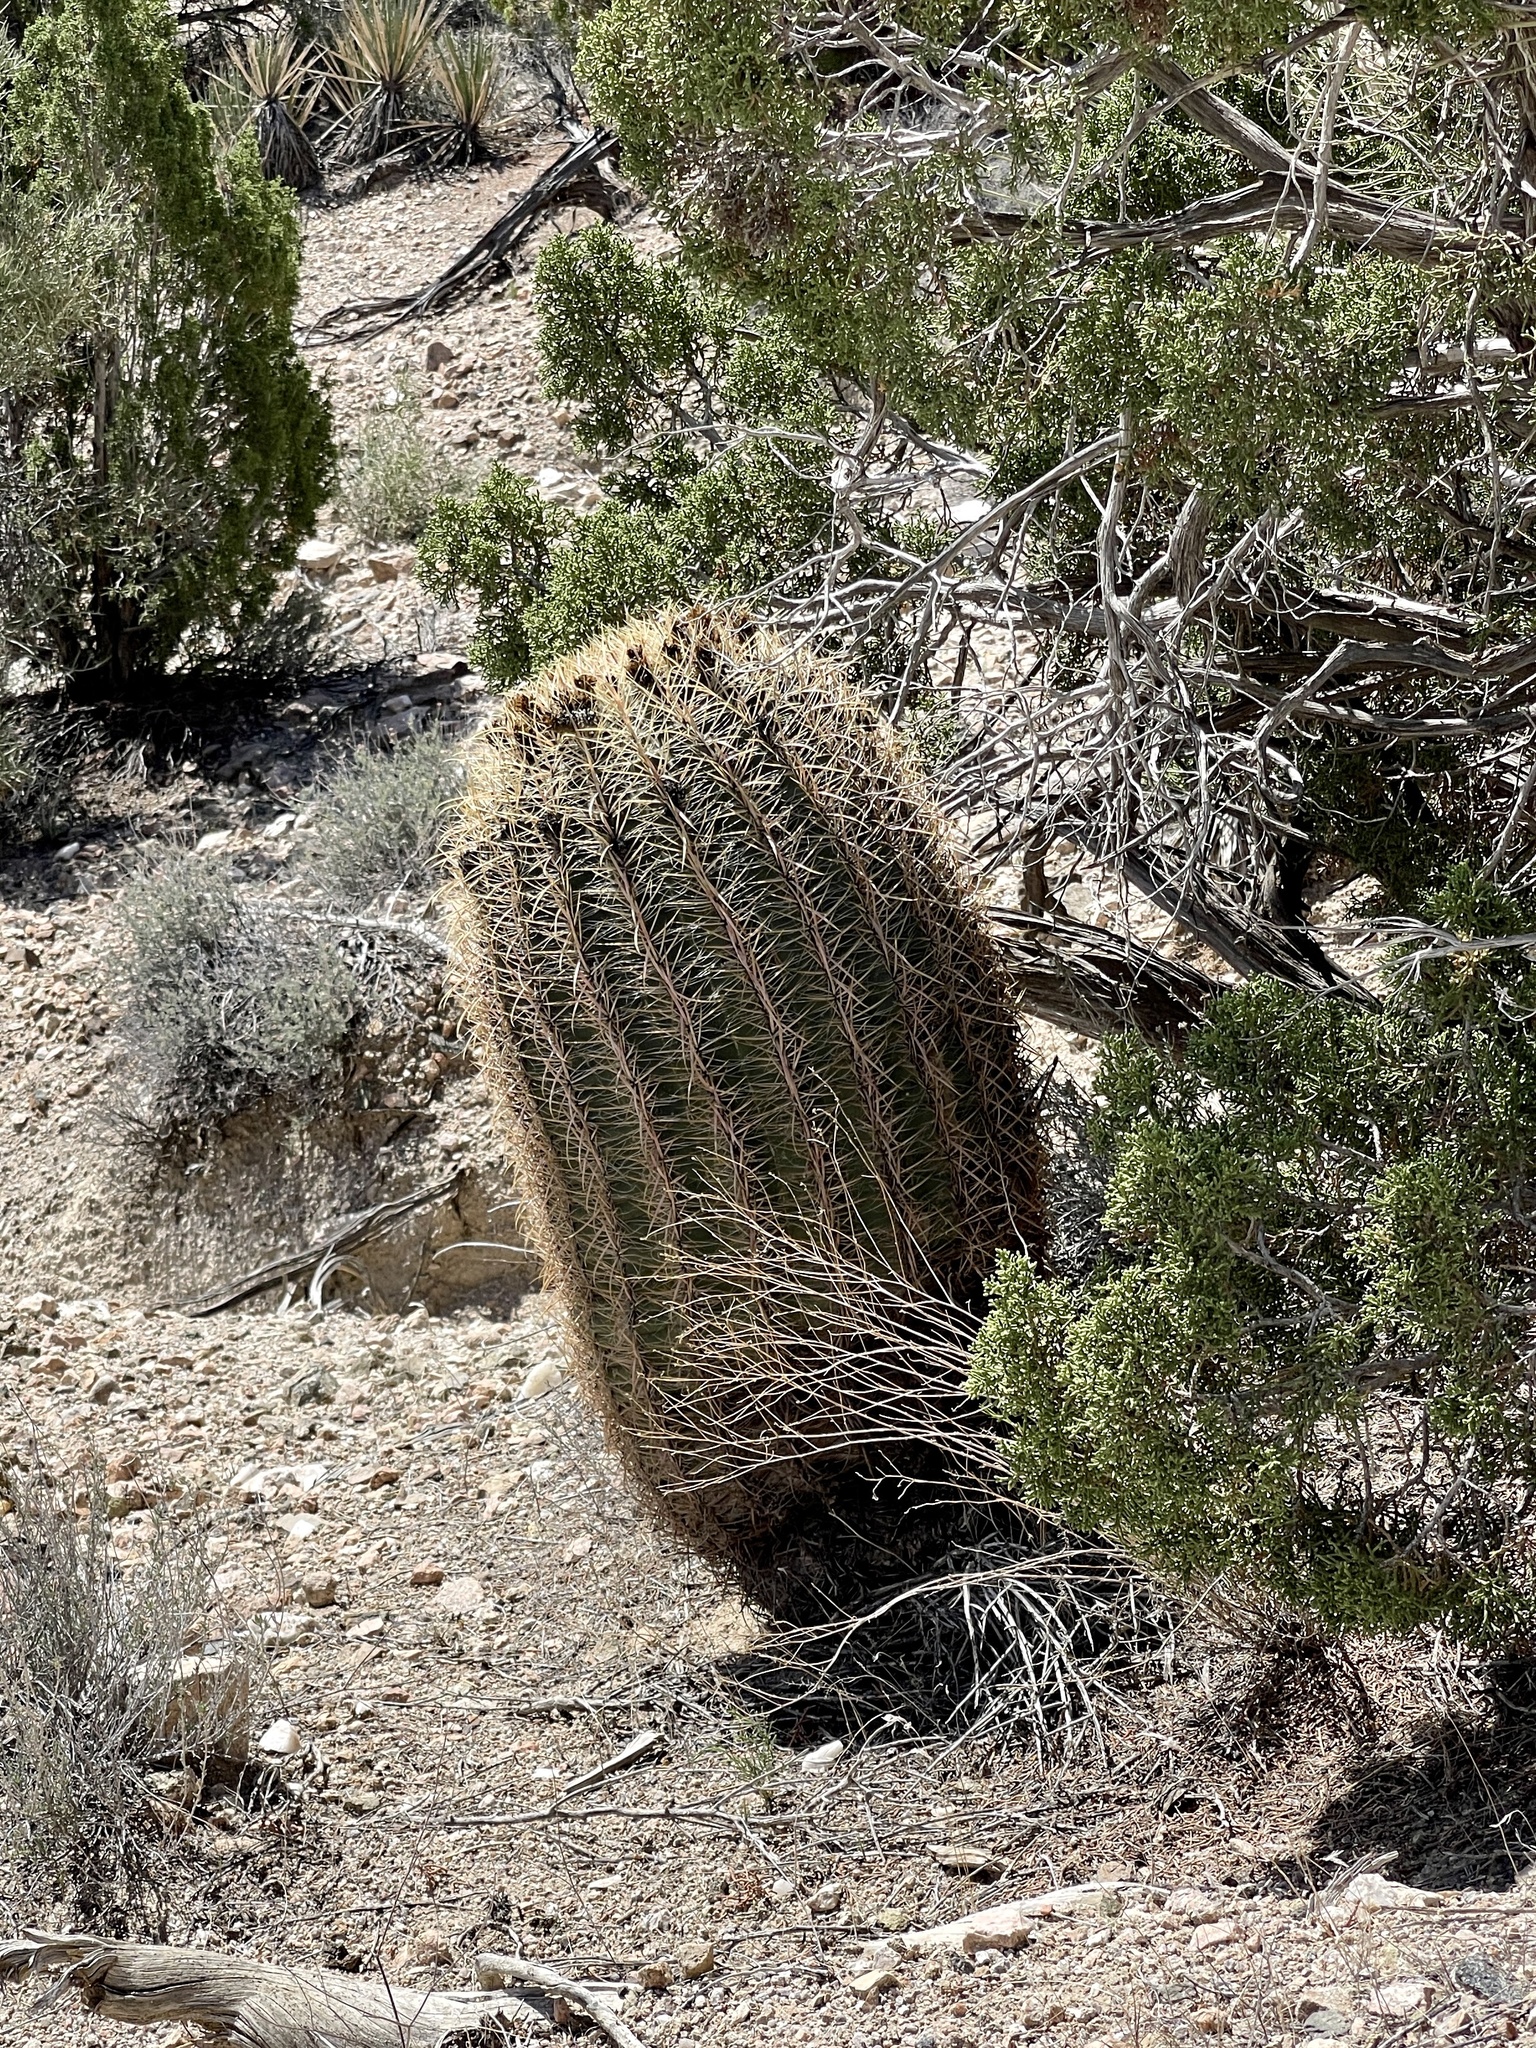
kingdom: Plantae
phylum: Tracheophyta
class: Magnoliopsida
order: Caryophyllales
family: Cactaceae
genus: Ferocactus
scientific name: Ferocactus cylindraceus
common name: California barrel cactus
